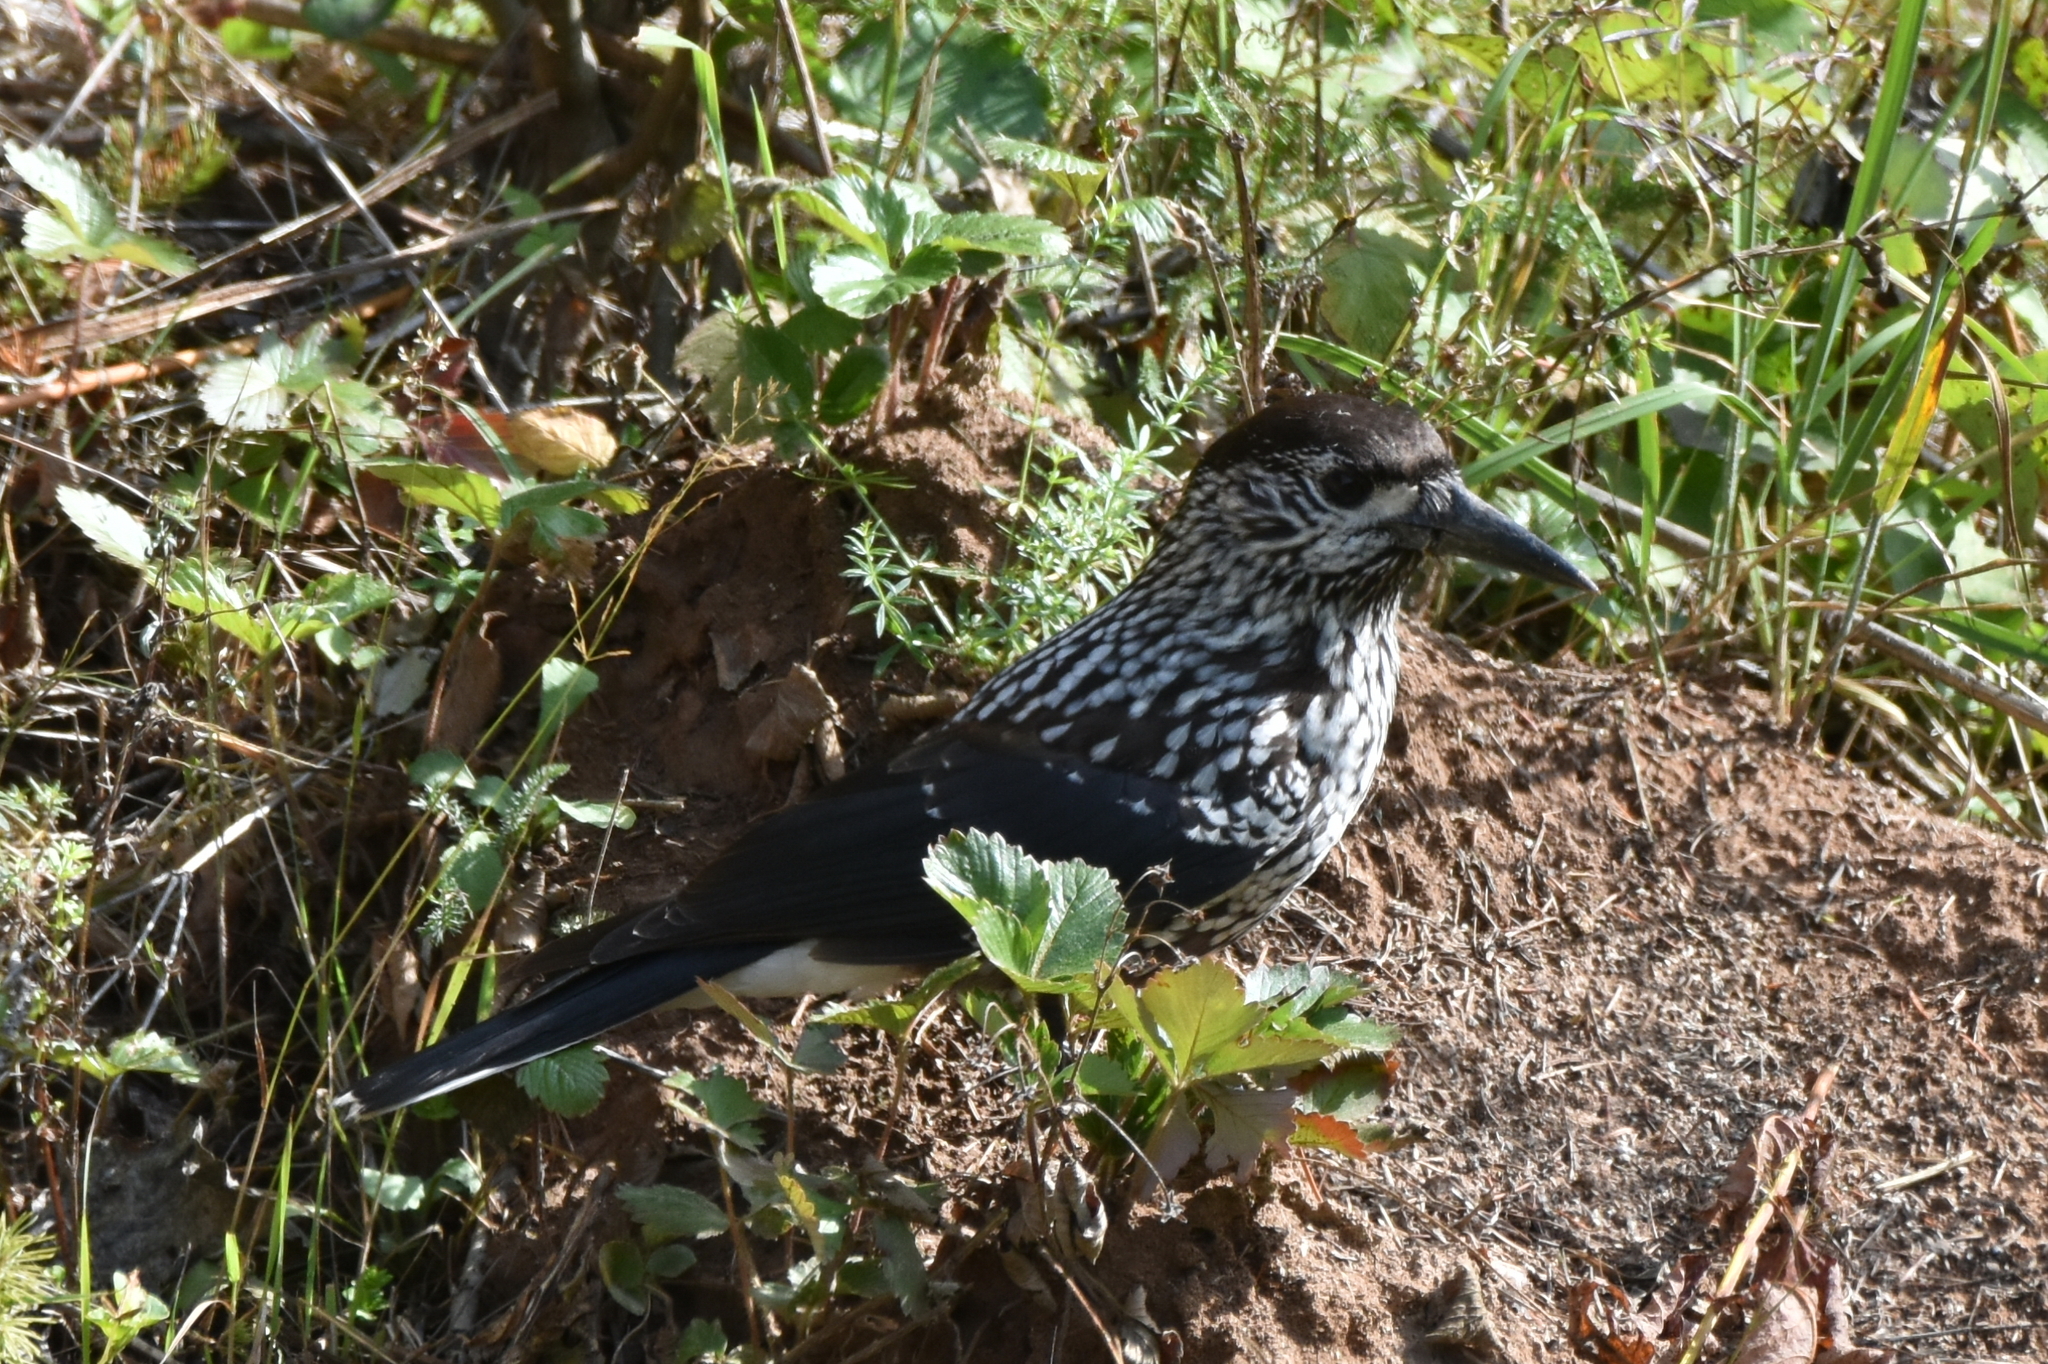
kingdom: Animalia
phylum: Chordata
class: Aves
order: Passeriformes
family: Corvidae
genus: Nucifraga
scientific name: Nucifraga caryocatactes
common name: Spotted nutcracker
